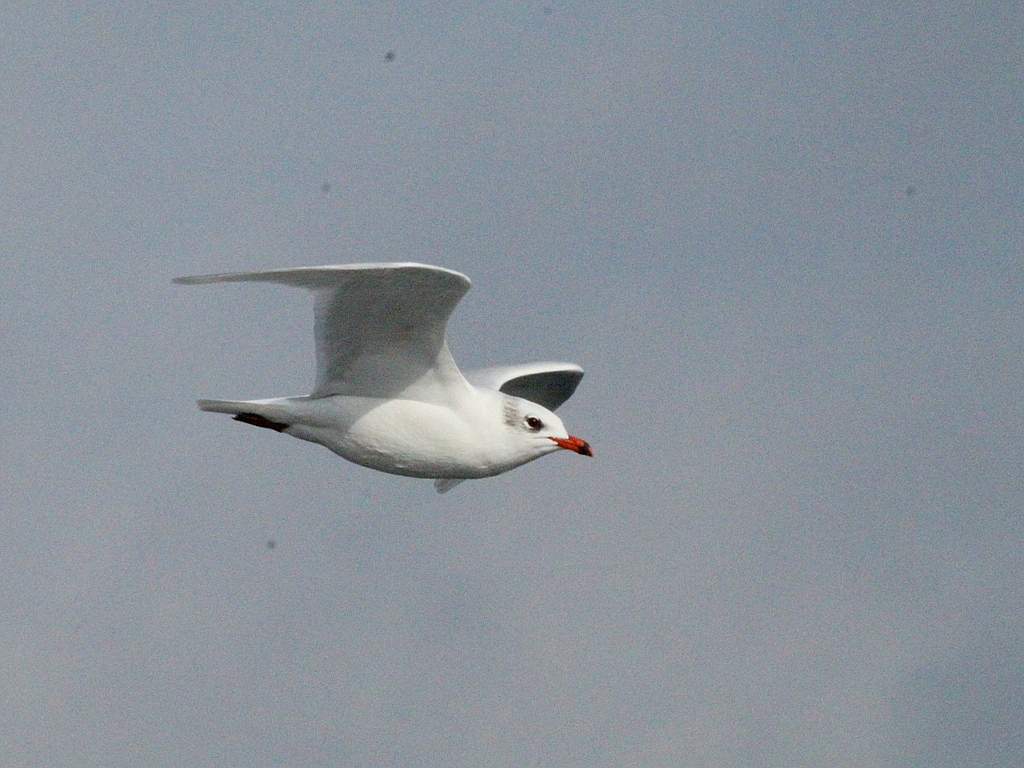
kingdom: Animalia
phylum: Chordata
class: Aves
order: Charadriiformes
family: Laridae
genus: Ichthyaetus
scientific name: Ichthyaetus melanocephalus
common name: Mediterranean gull
